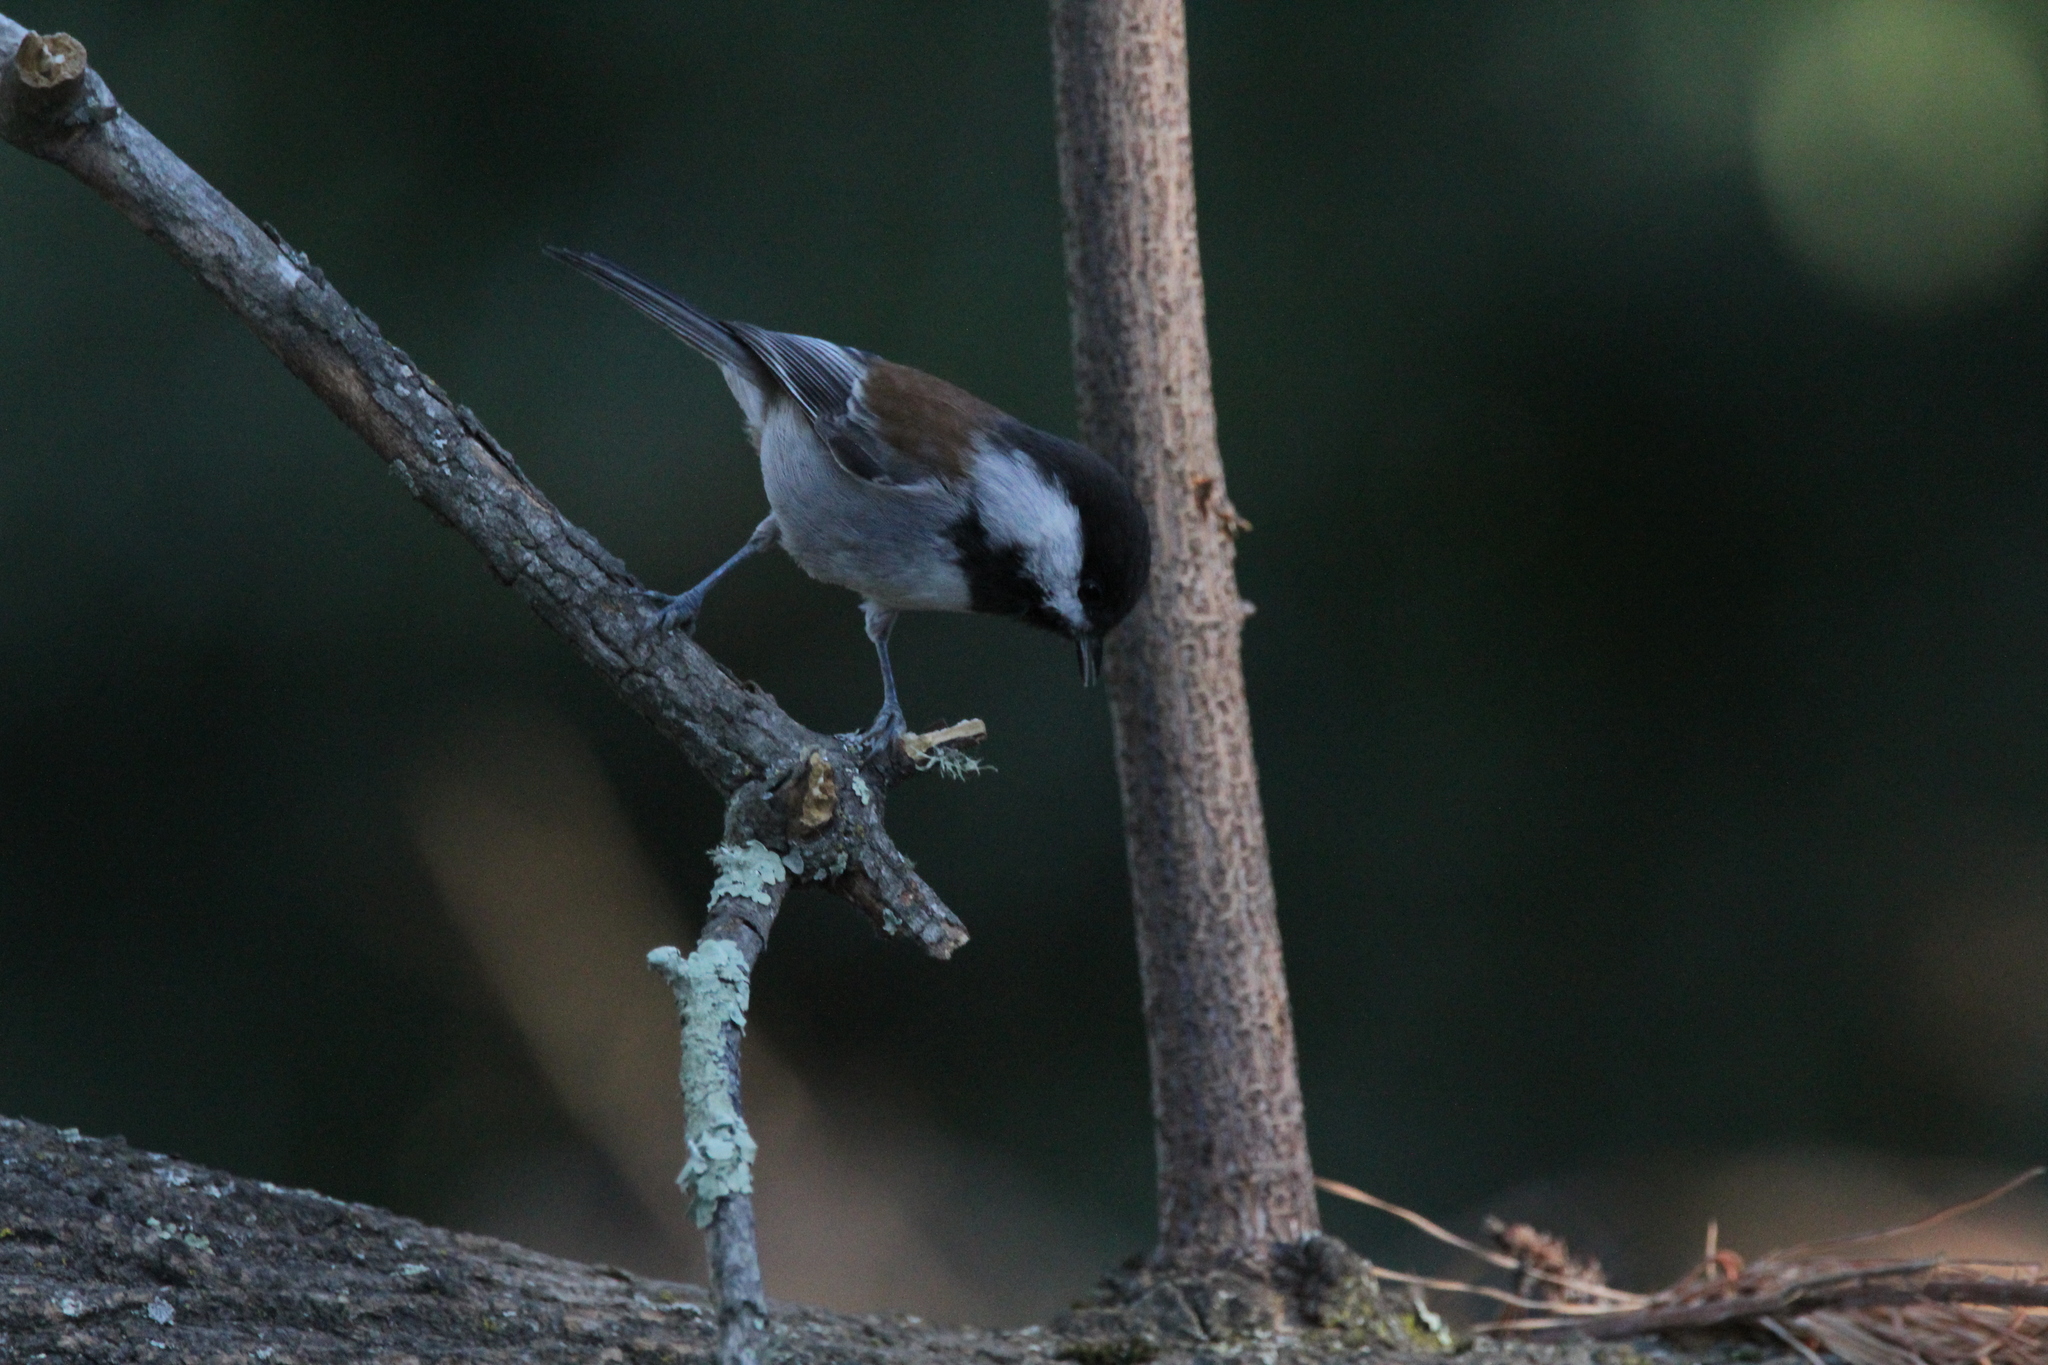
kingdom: Animalia
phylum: Chordata
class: Aves
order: Passeriformes
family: Paridae
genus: Poecile
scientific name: Poecile rufescens
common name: Chestnut-backed chickadee
